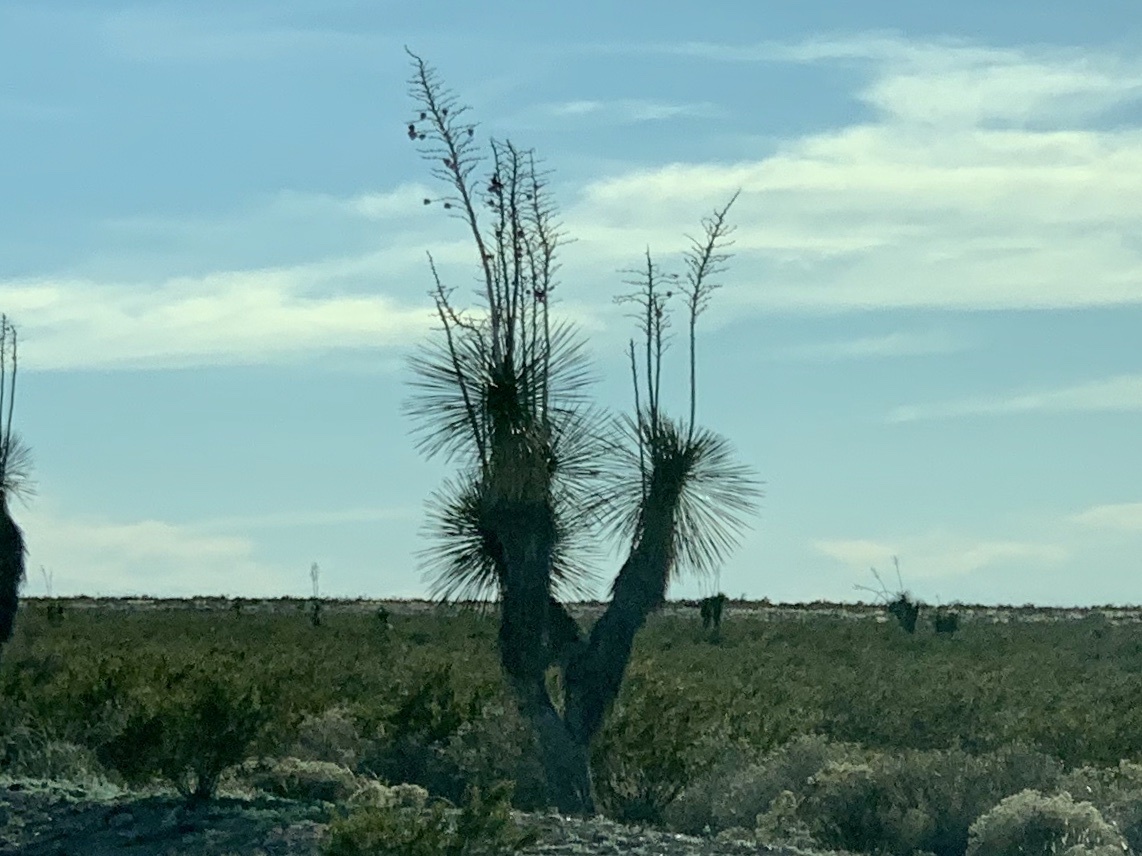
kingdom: Plantae
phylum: Tracheophyta
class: Liliopsida
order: Asparagales
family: Asparagaceae
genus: Yucca
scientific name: Yucca elata
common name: Palmella
